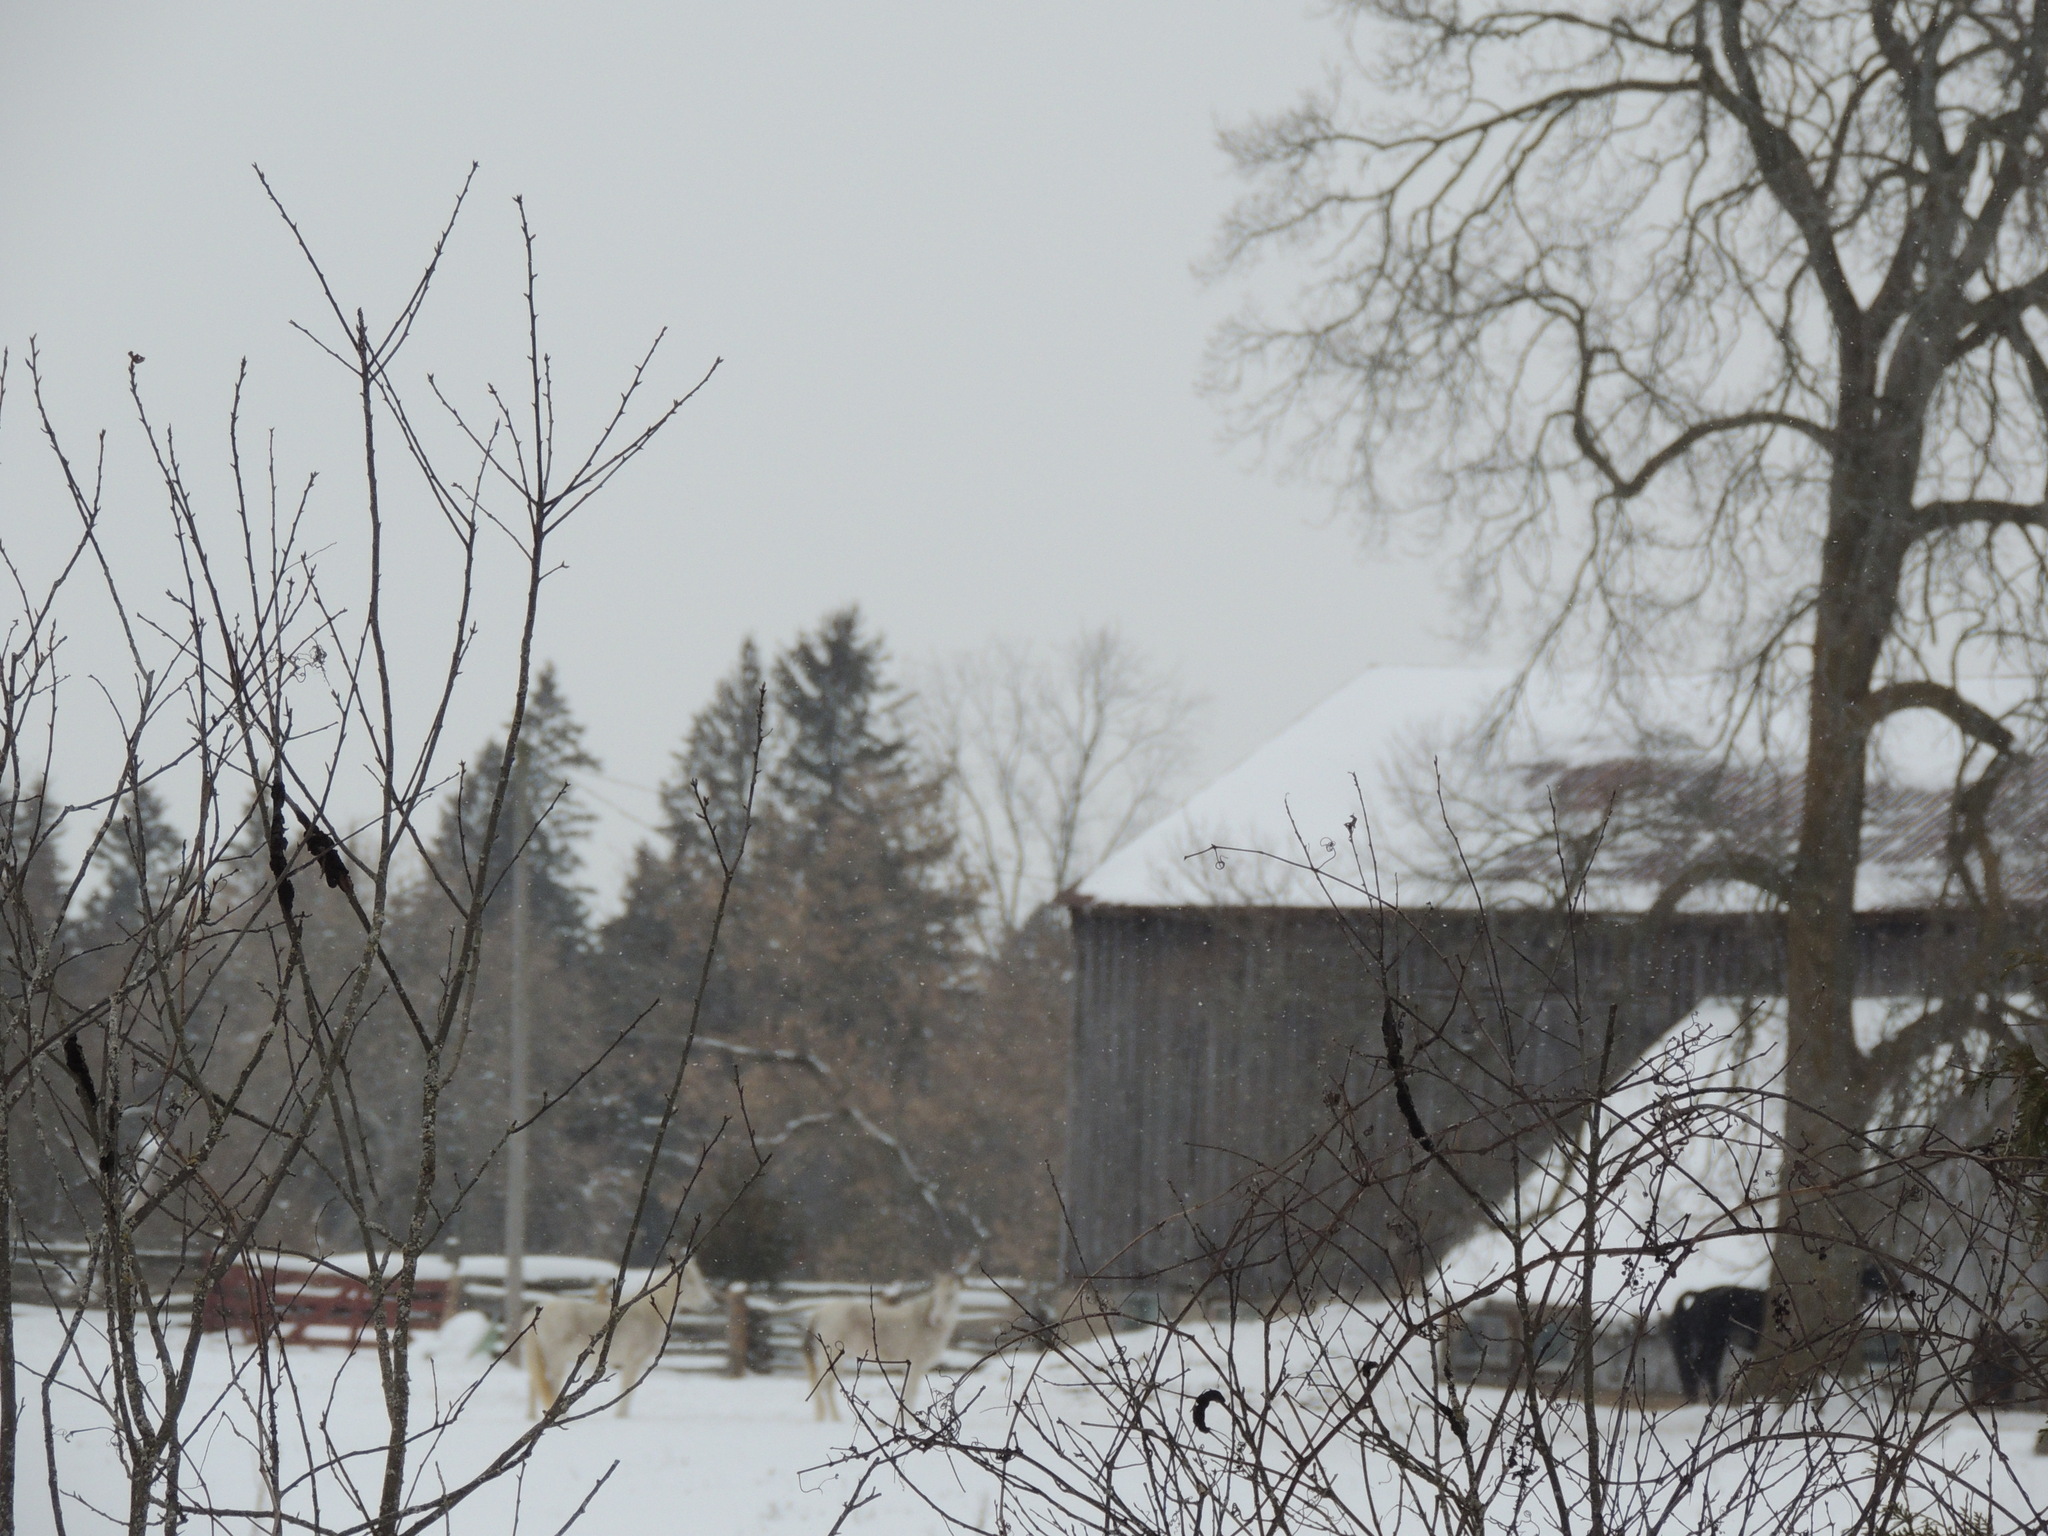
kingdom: Fungi
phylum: Ascomycota
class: Dothideomycetes
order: Venturiales
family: Venturiaceae
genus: Apiosporina
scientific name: Apiosporina morbosa
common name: Black knot
